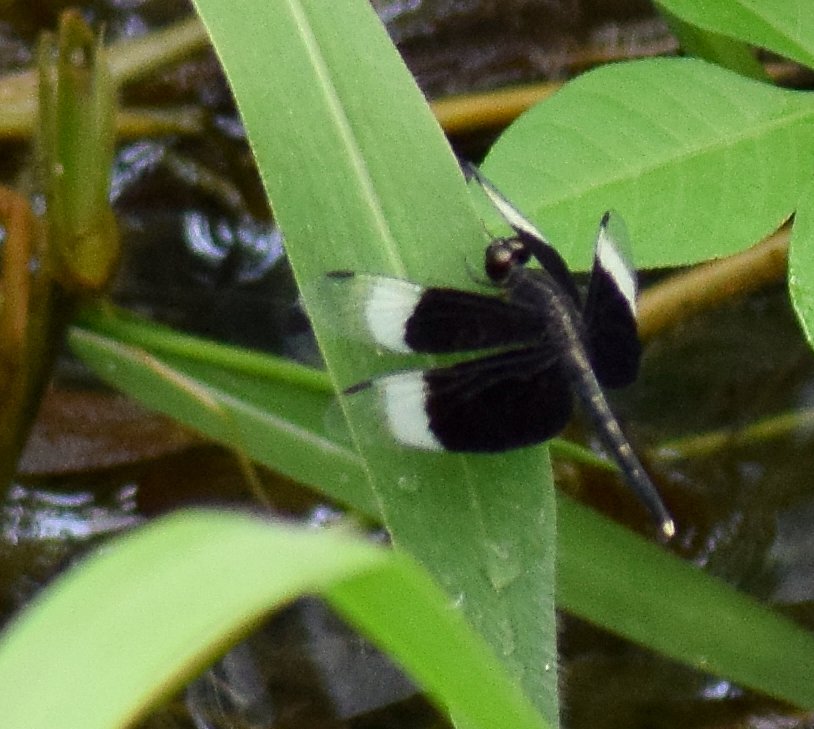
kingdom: Animalia
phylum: Arthropoda
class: Insecta
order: Odonata
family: Libellulidae
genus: Neurothemis
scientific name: Neurothemis tullia
